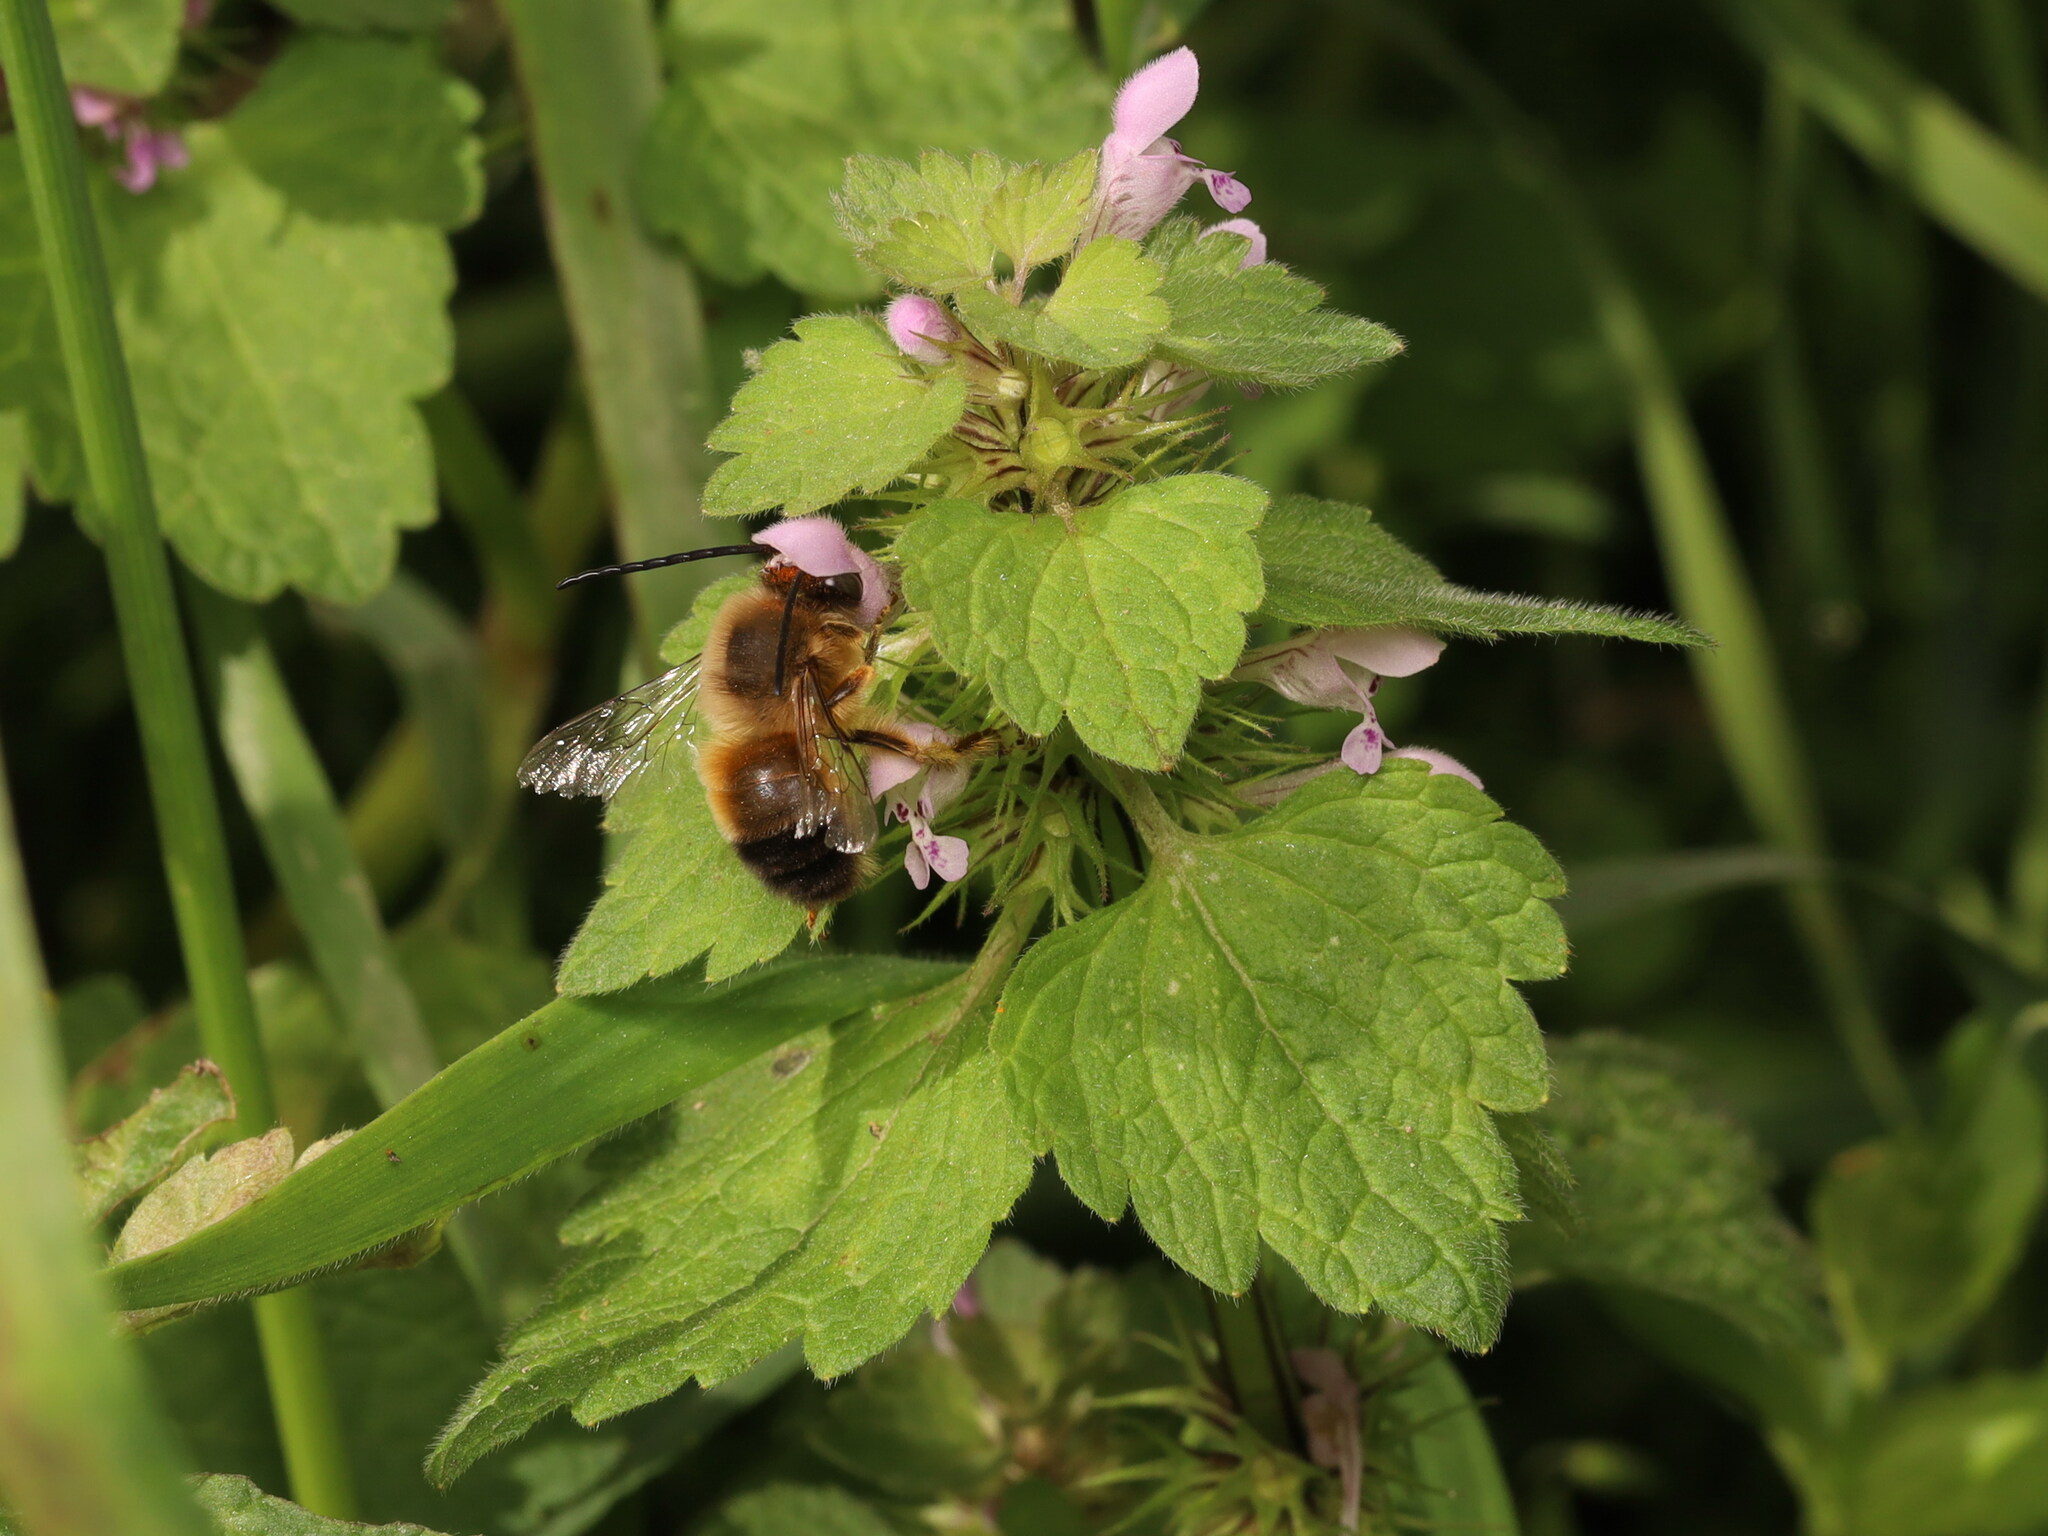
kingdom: Plantae
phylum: Tracheophyta
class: Magnoliopsida
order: Lamiales
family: Lamiaceae
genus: Lamium
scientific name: Lamium purpureum
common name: Red dead-nettle
